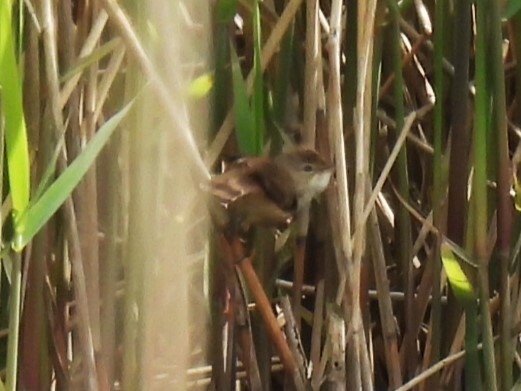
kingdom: Animalia
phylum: Chordata
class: Aves
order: Passeriformes
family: Acrocephalidae
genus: Acrocephalus
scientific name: Acrocephalus scirpaceus
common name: Eurasian reed warbler
